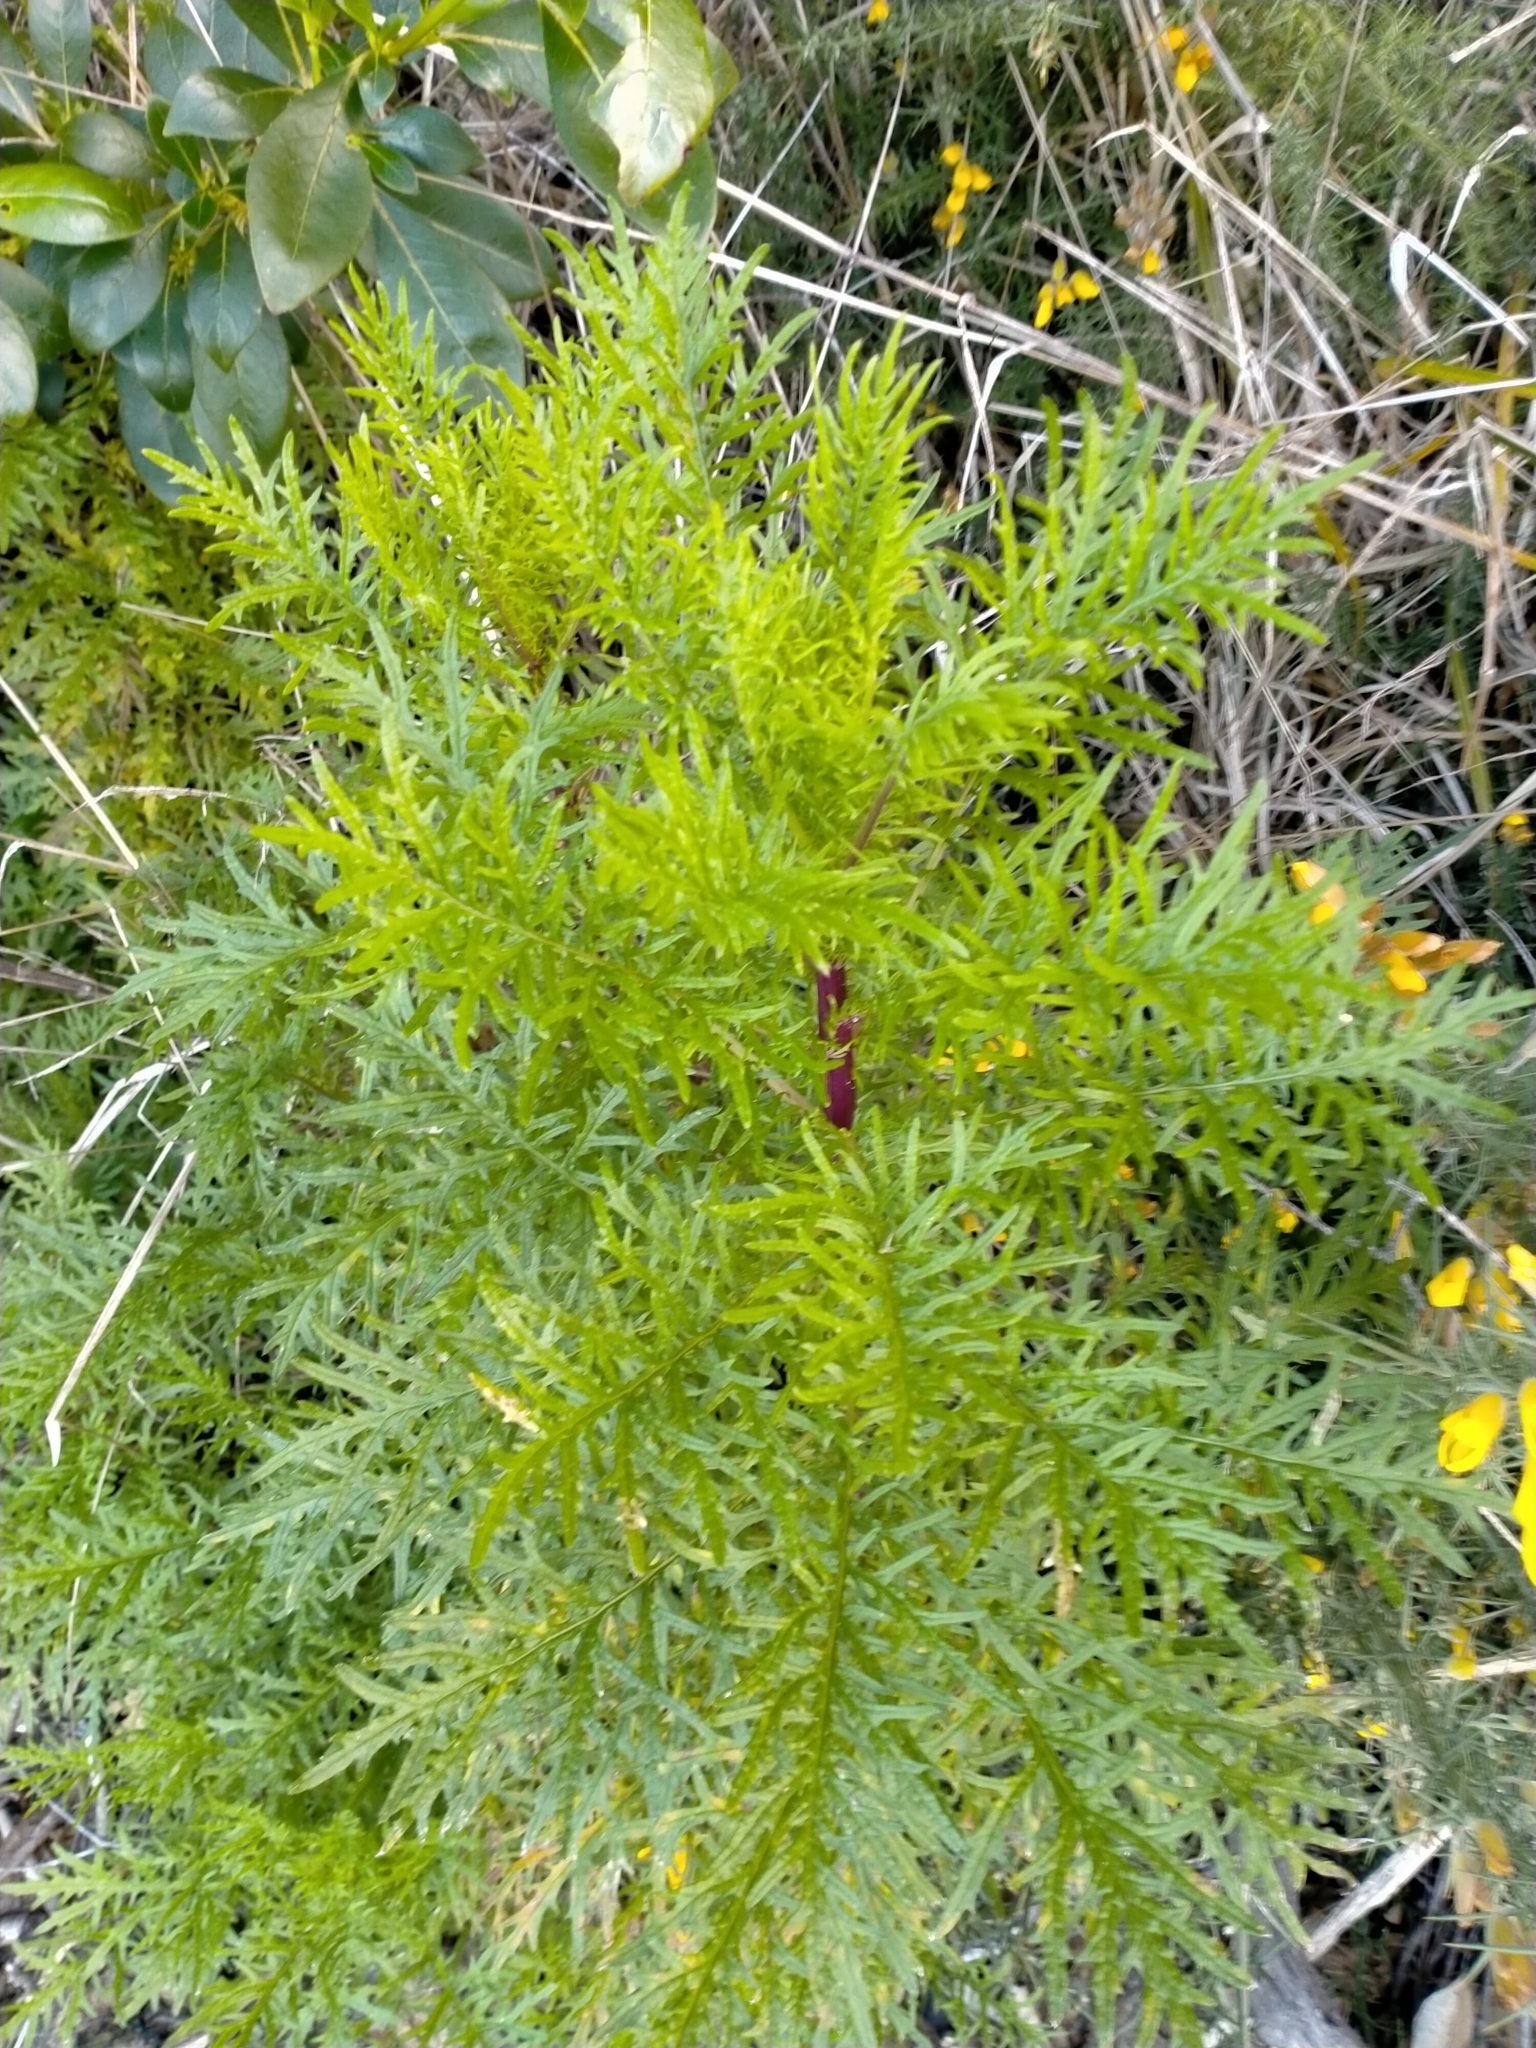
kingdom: Plantae
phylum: Tracheophyta
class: Magnoliopsida
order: Asterales
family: Asteraceae
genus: Senecio
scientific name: Senecio bipinnatisectus
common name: Australian fireweed
